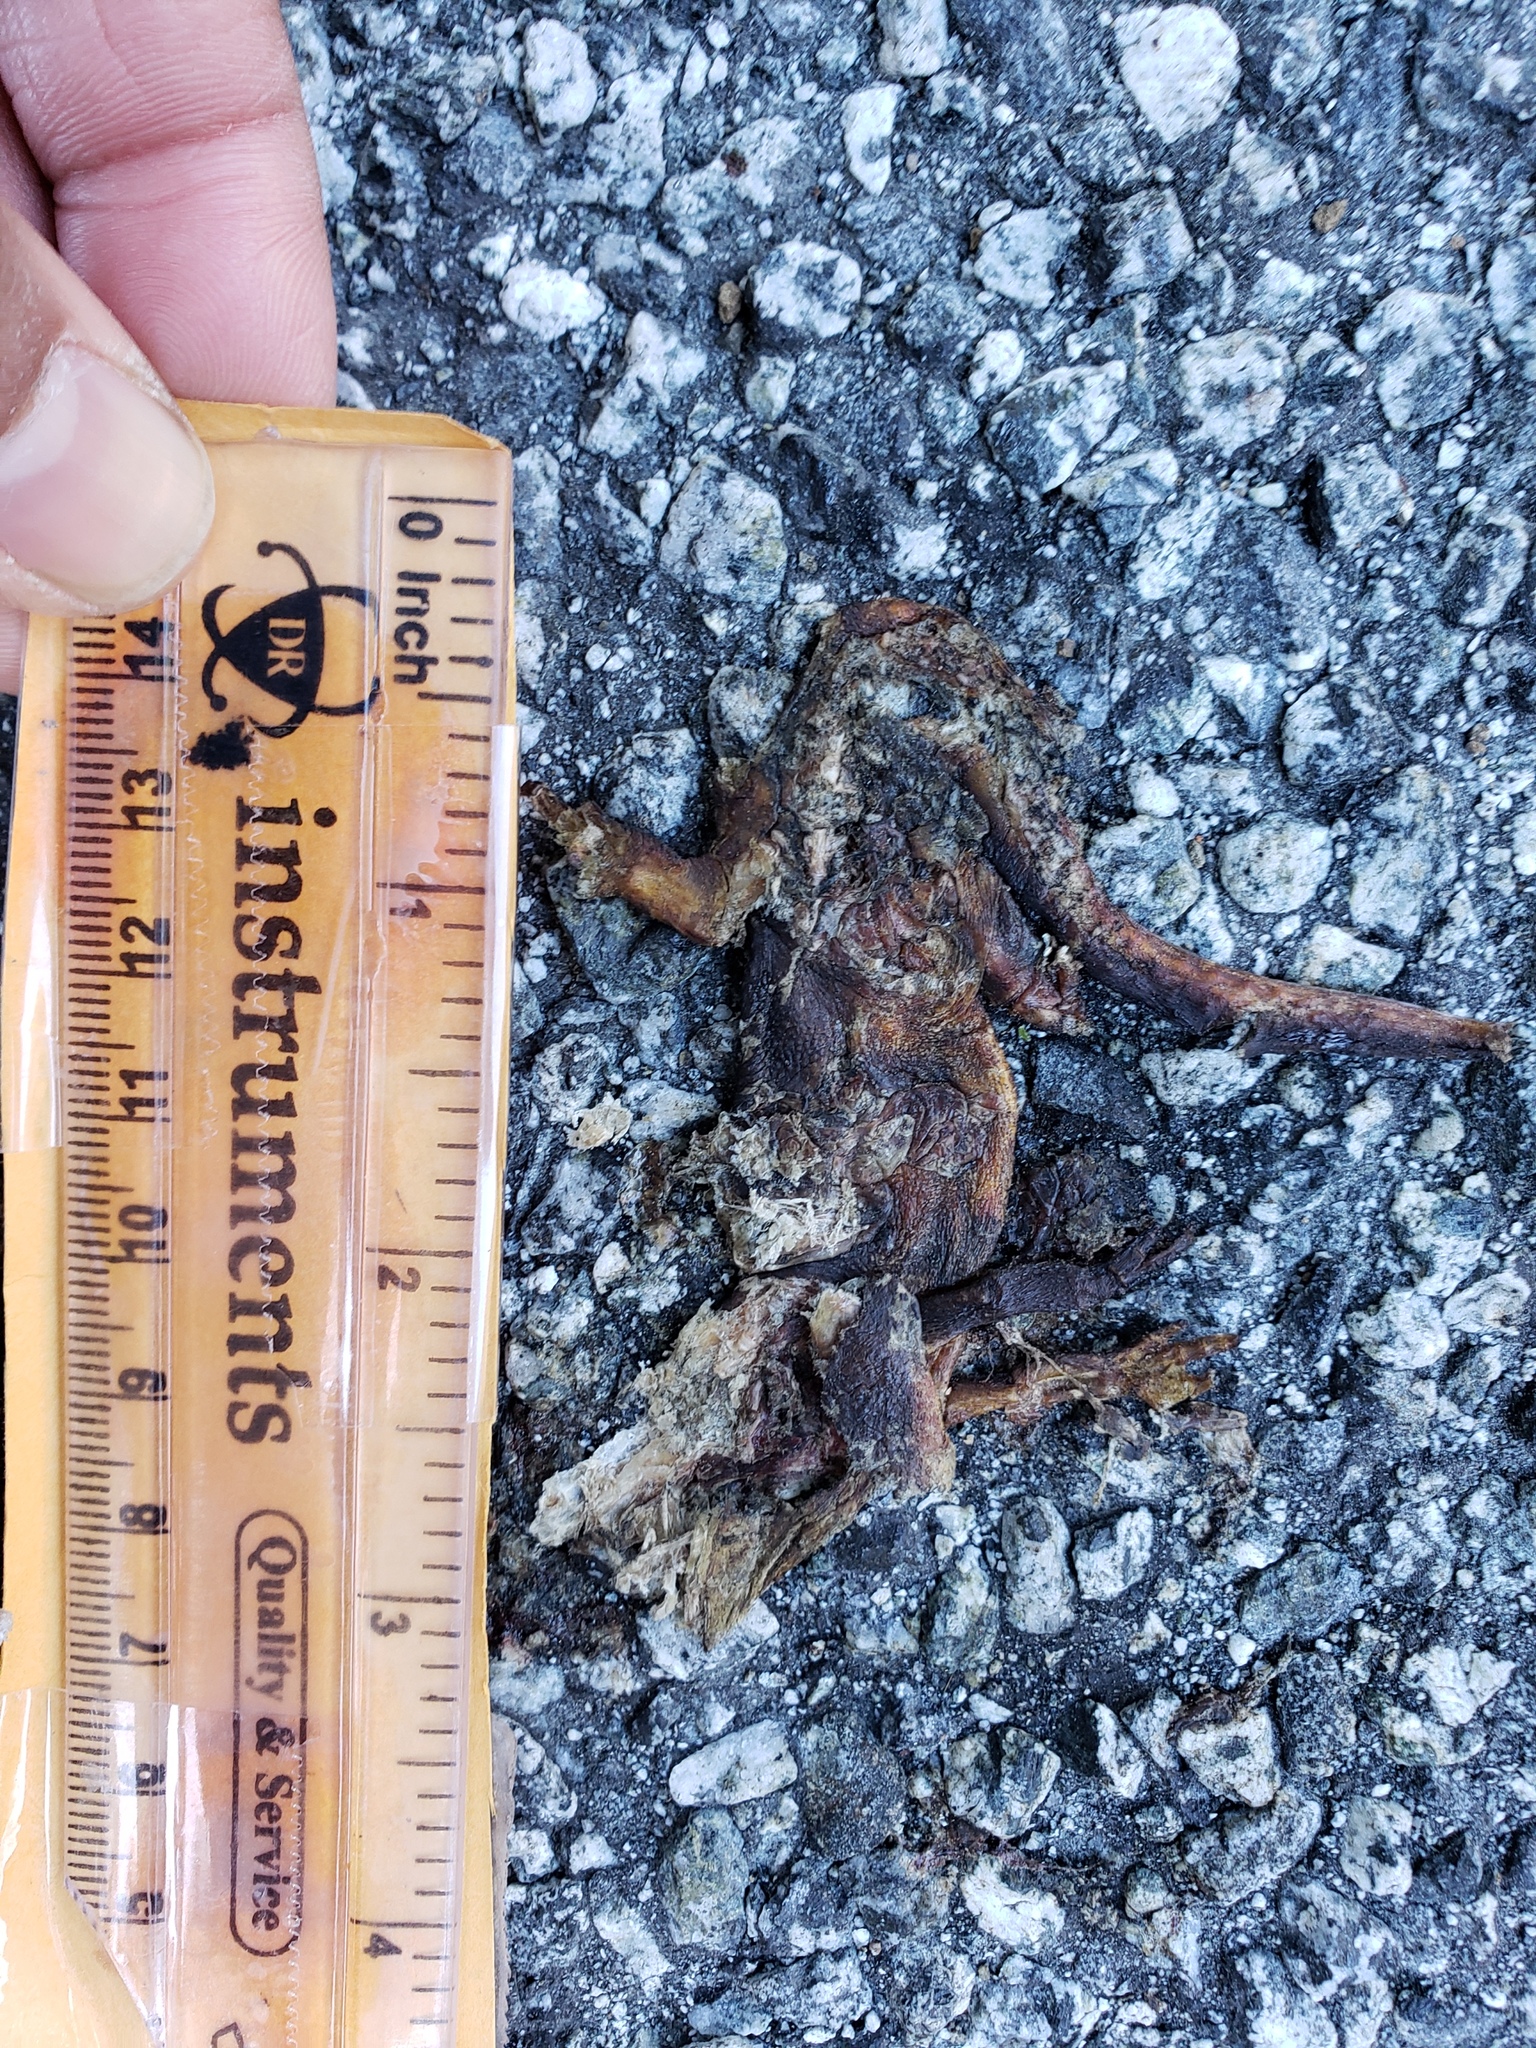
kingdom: Animalia
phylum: Chordata
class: Amphibia
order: Caudata
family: Salamandridae
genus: Taricha
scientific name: Taricha
